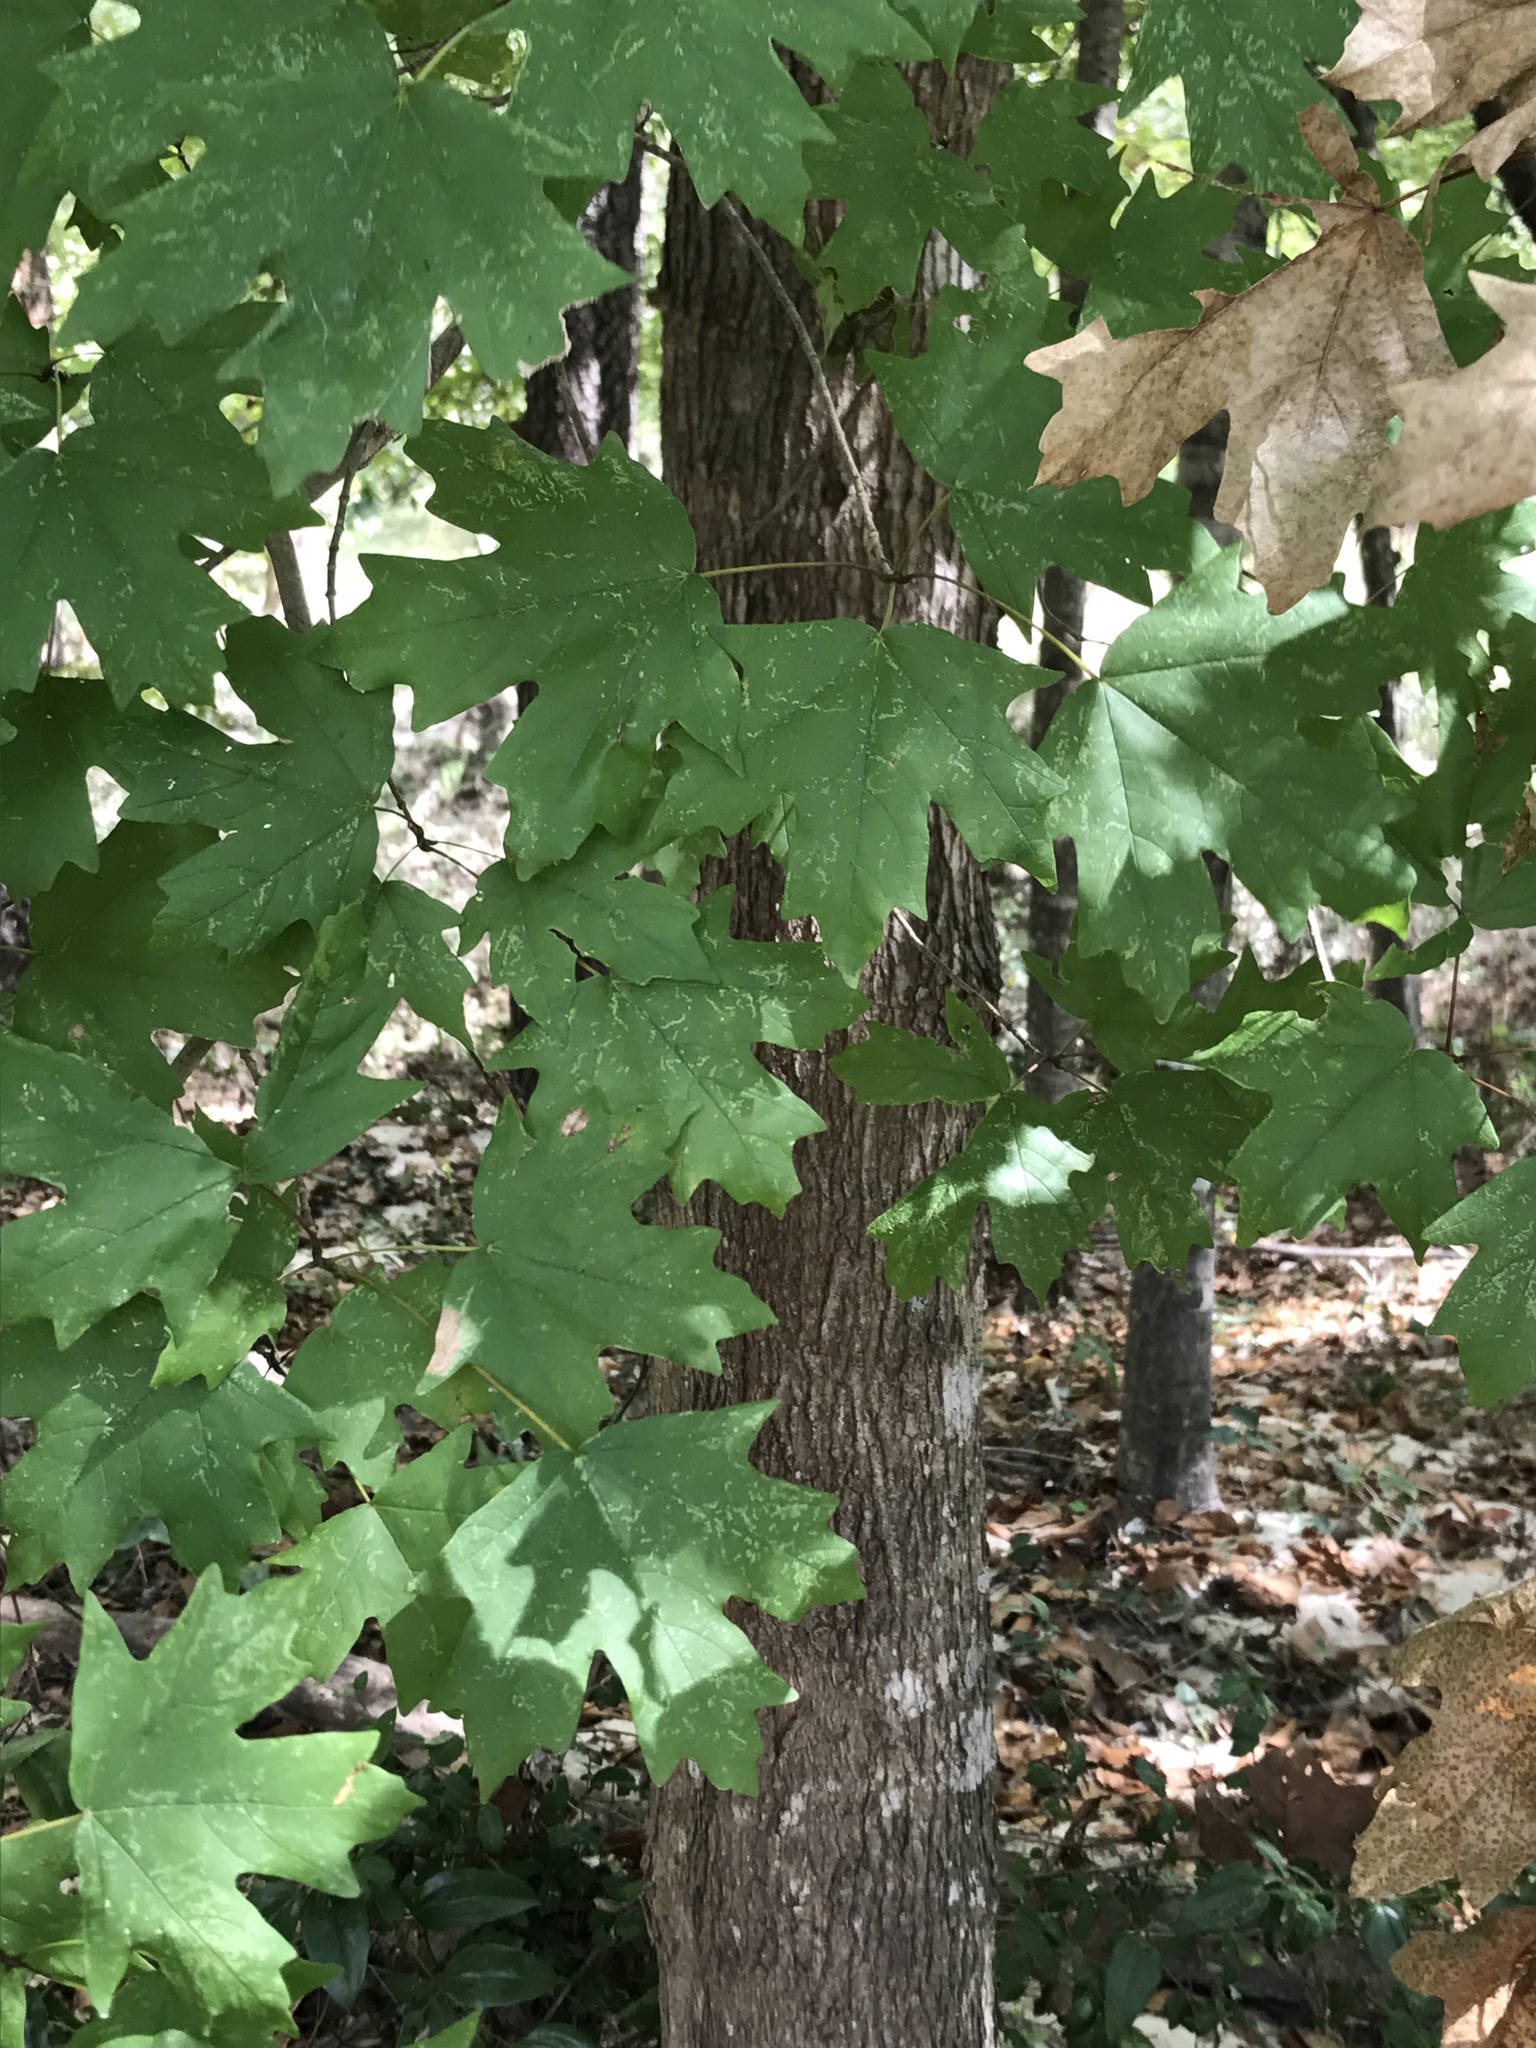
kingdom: Plantae
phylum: Tracheophyta
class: Magnoliopsida
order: Sapindales
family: Sapindaceae
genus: Acer
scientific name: Acer floridanum
